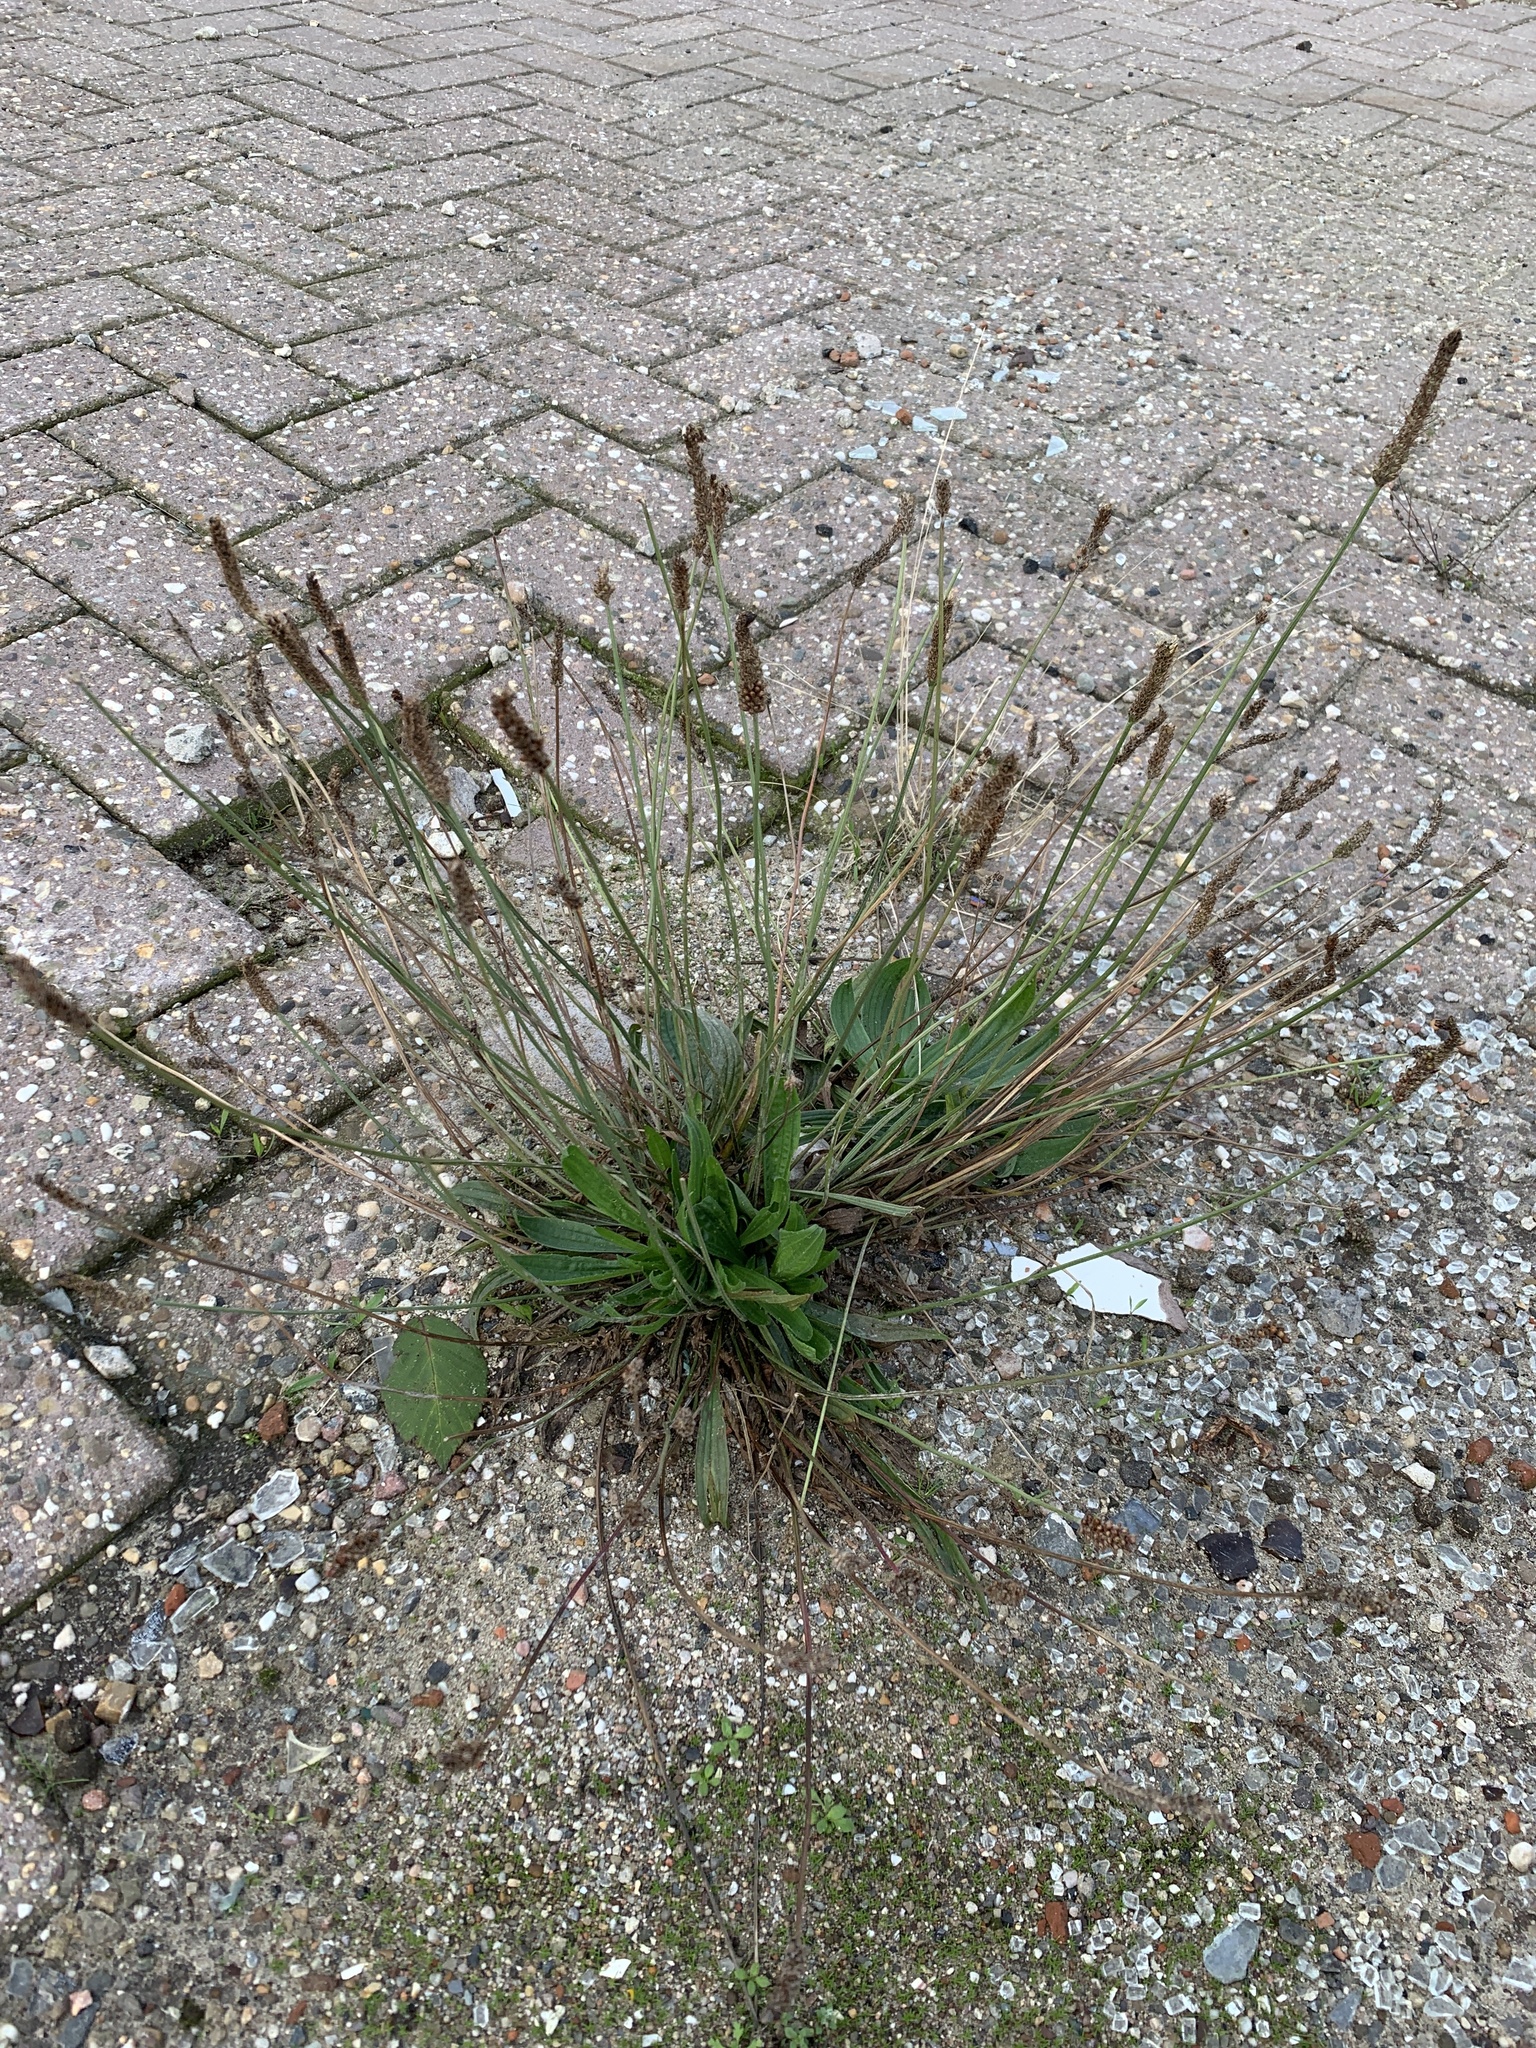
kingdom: Plantae
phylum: Tracheophyta
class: Magnoliopsida
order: Lamiales
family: Plantaginaceae
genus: Plantago
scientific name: Plantago lanceolata
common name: Ribwort plantain
